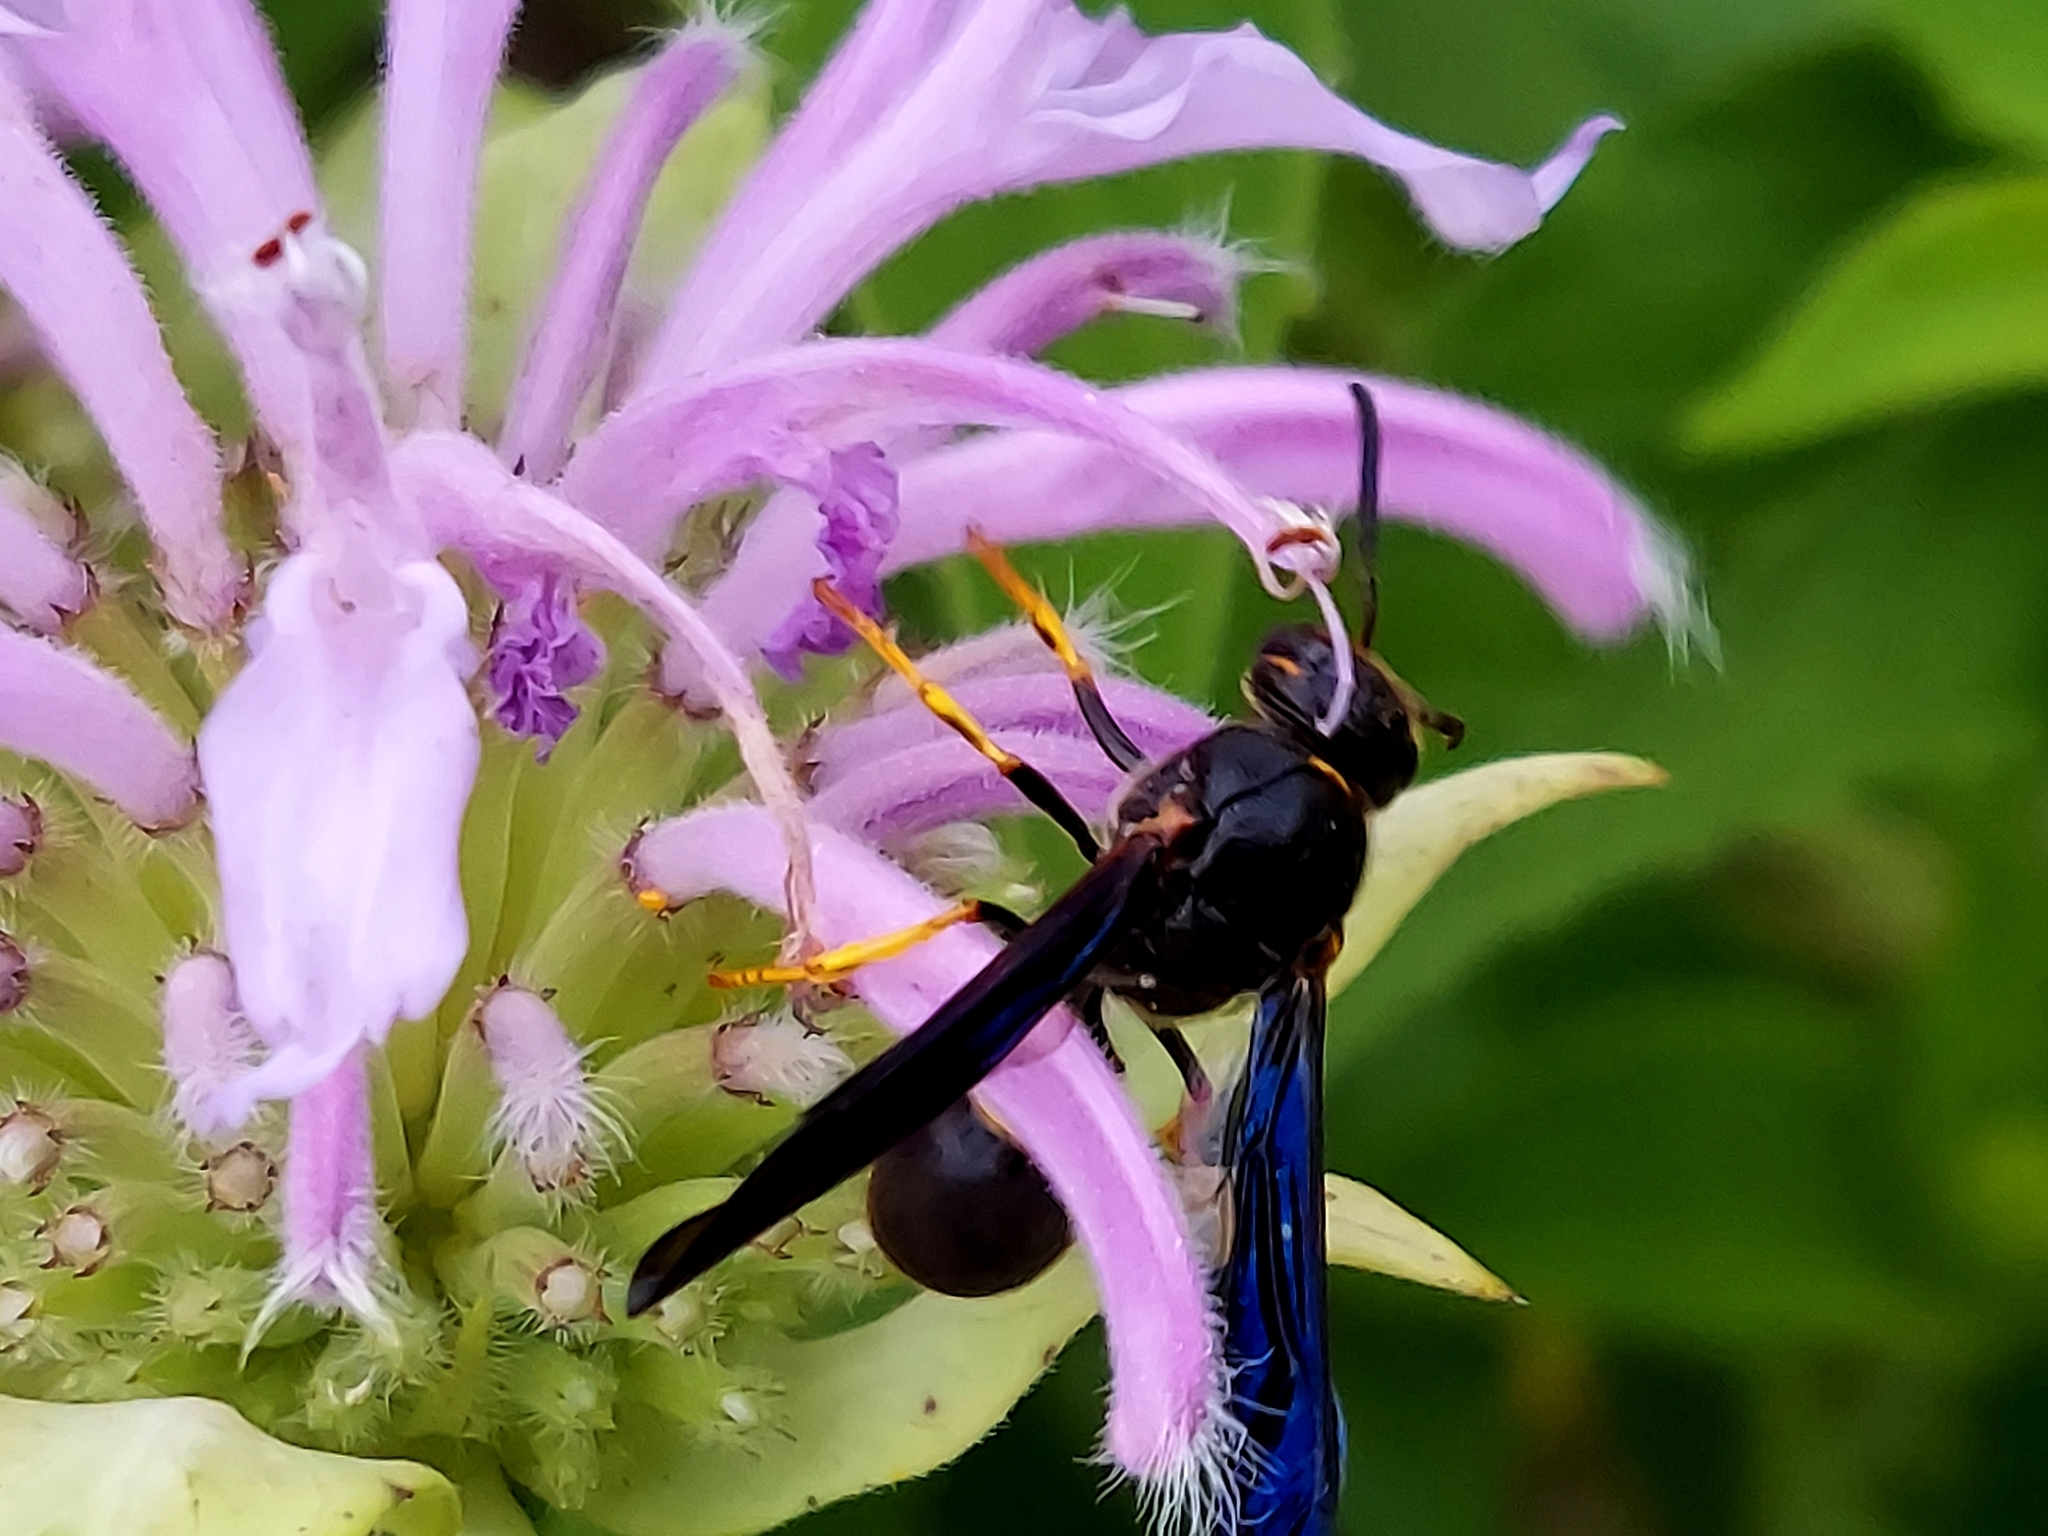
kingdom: Animalia
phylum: Arthropoda
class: Insecta
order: Hymenoptera
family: Eumenidae
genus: Parazumia
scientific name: Parazumia symmorpha
